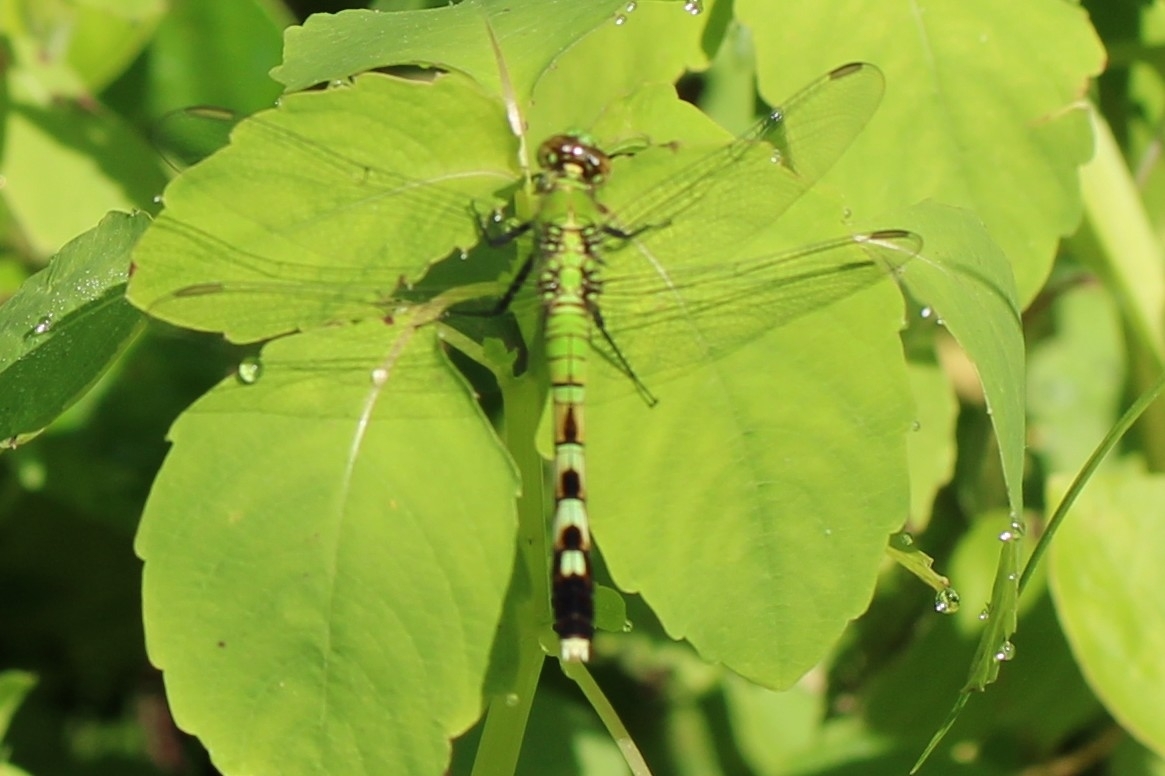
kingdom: Animalia
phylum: Arthropoda
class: Insecta
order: Odonata
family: Libellulidae
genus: Erythemis
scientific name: Erythemis simplicicollis
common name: Eastern pondhawk
